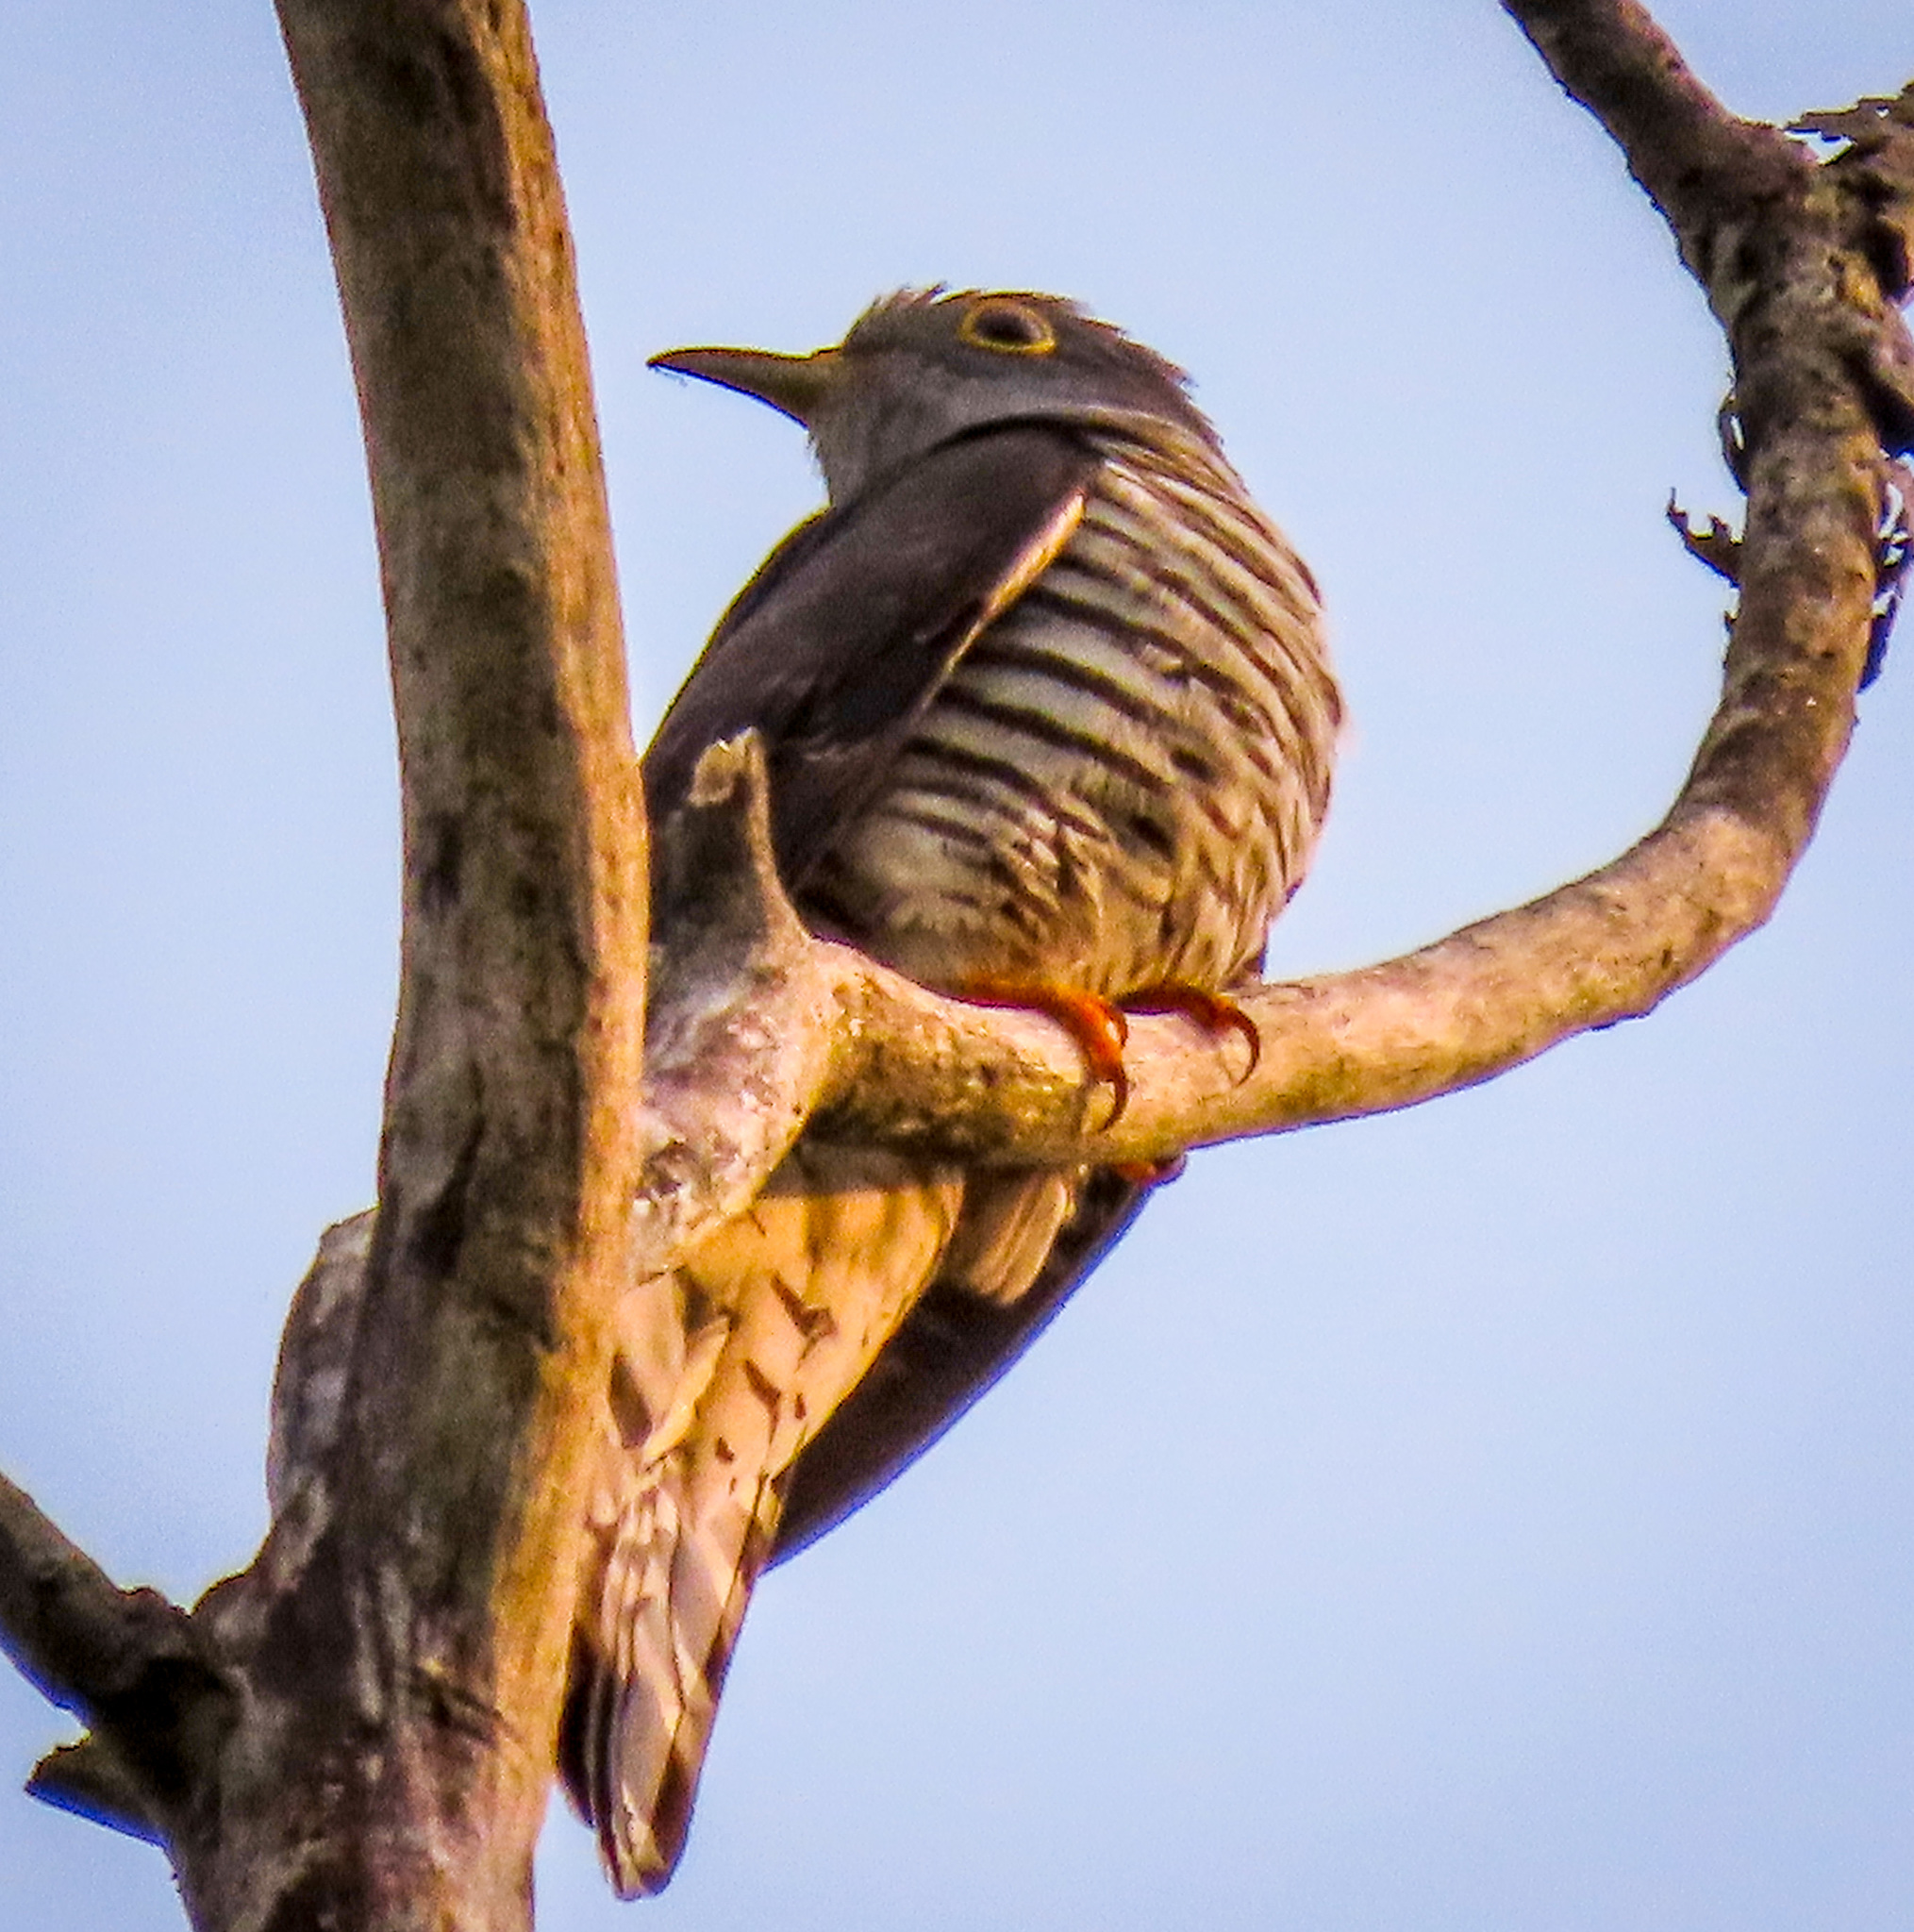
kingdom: Animalia
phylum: Chordata
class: Aves
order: Cuculiformes
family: Cuculidae
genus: Cuculus
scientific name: Cuculus micropterus
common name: Indian cuckoo
